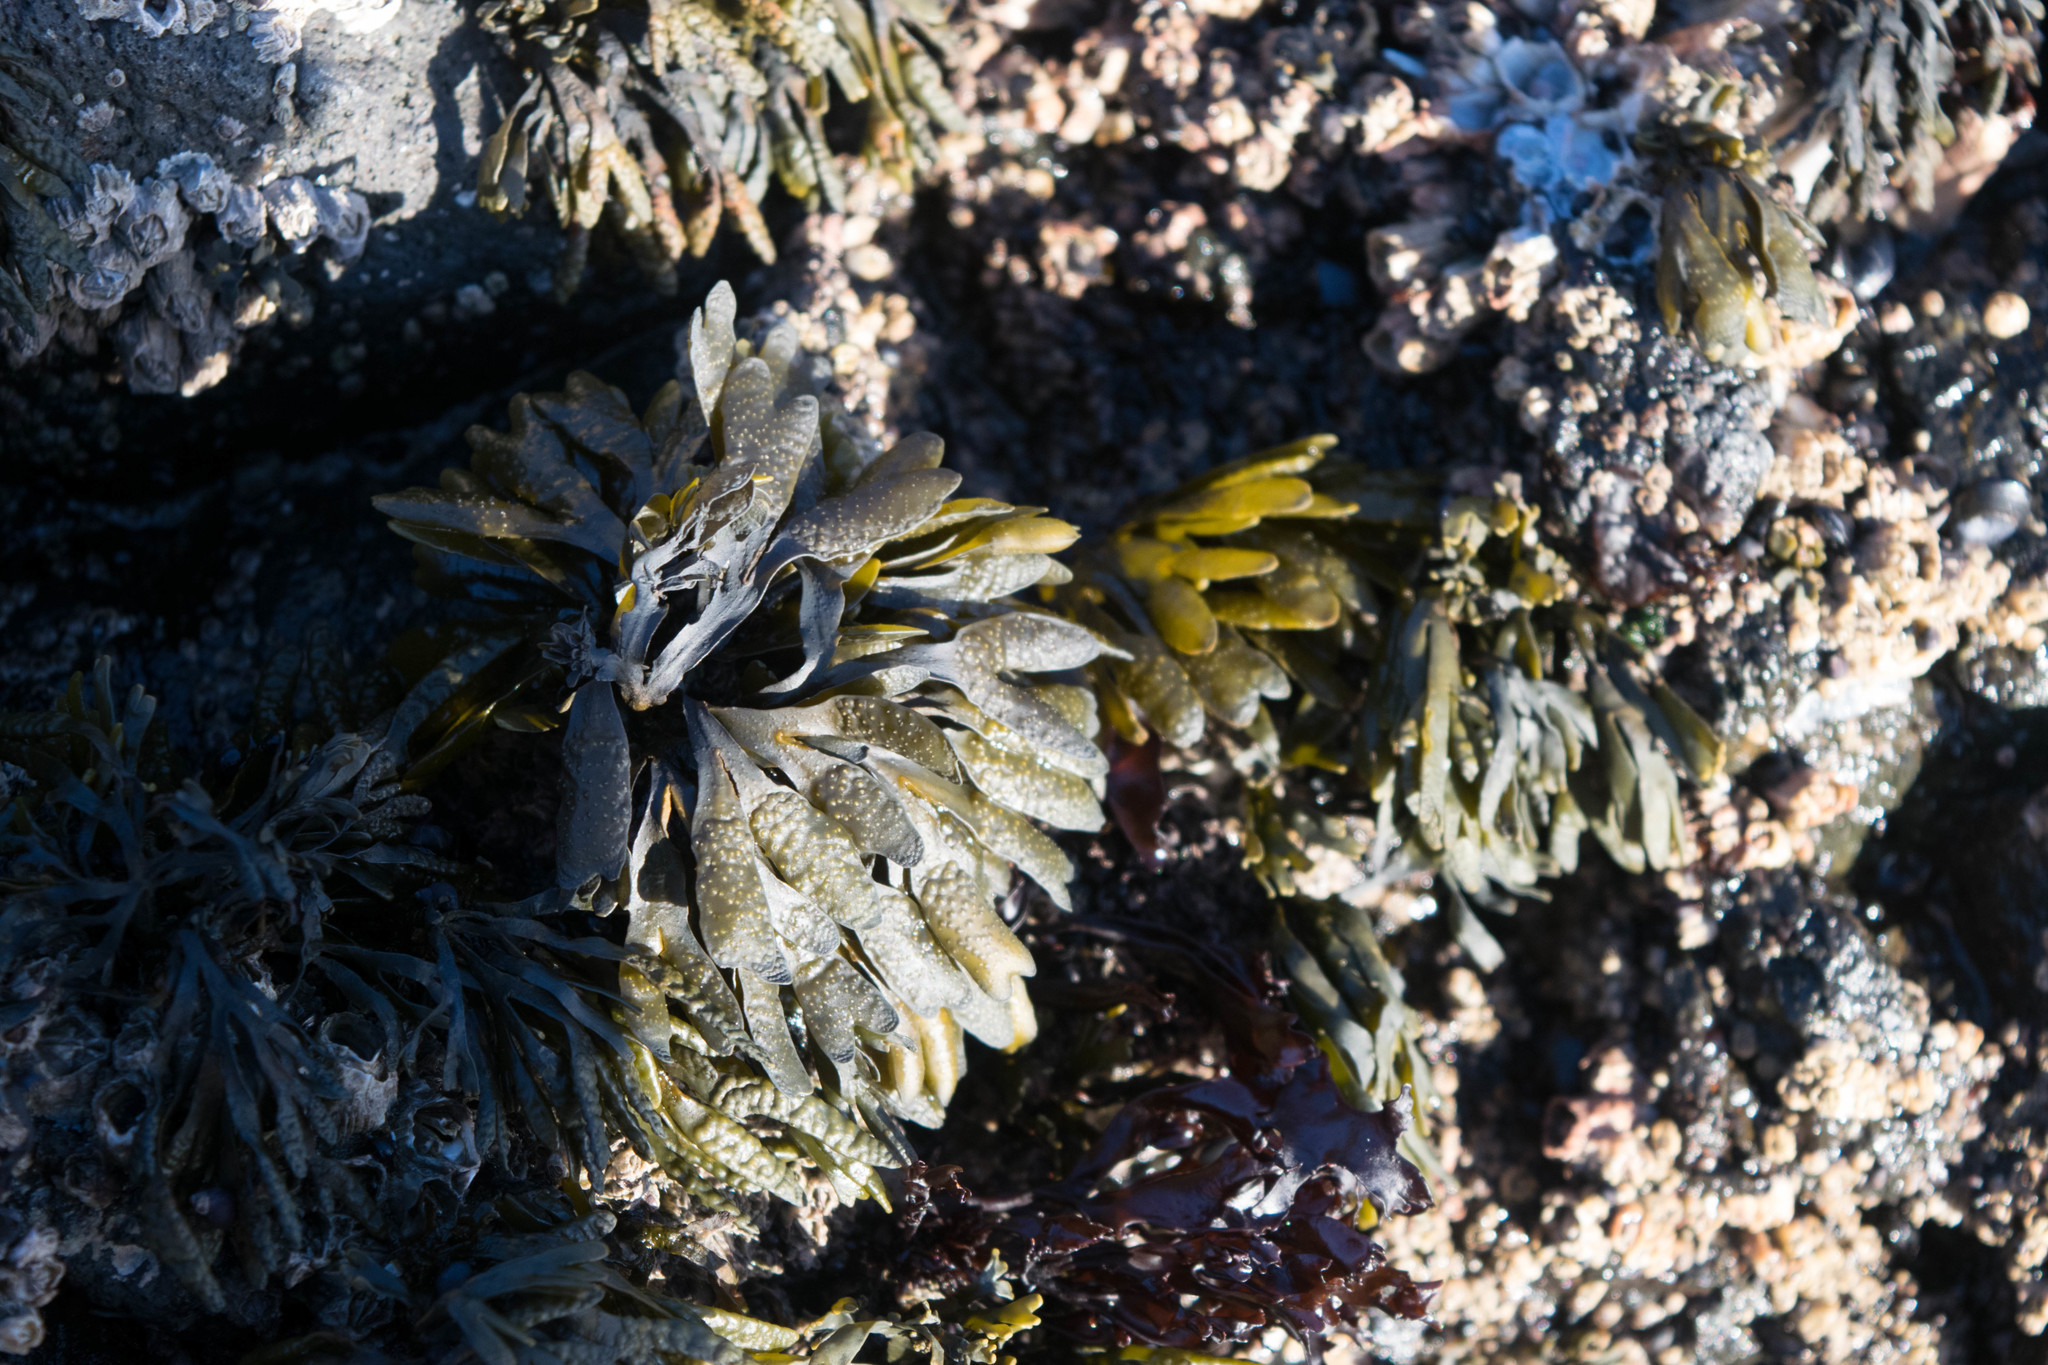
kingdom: Chromista
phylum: Ochrophyta
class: Phaeophyceae
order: Fucales
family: Fucaceae
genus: Fucus
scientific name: Fucus distichus
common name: Rockweed
